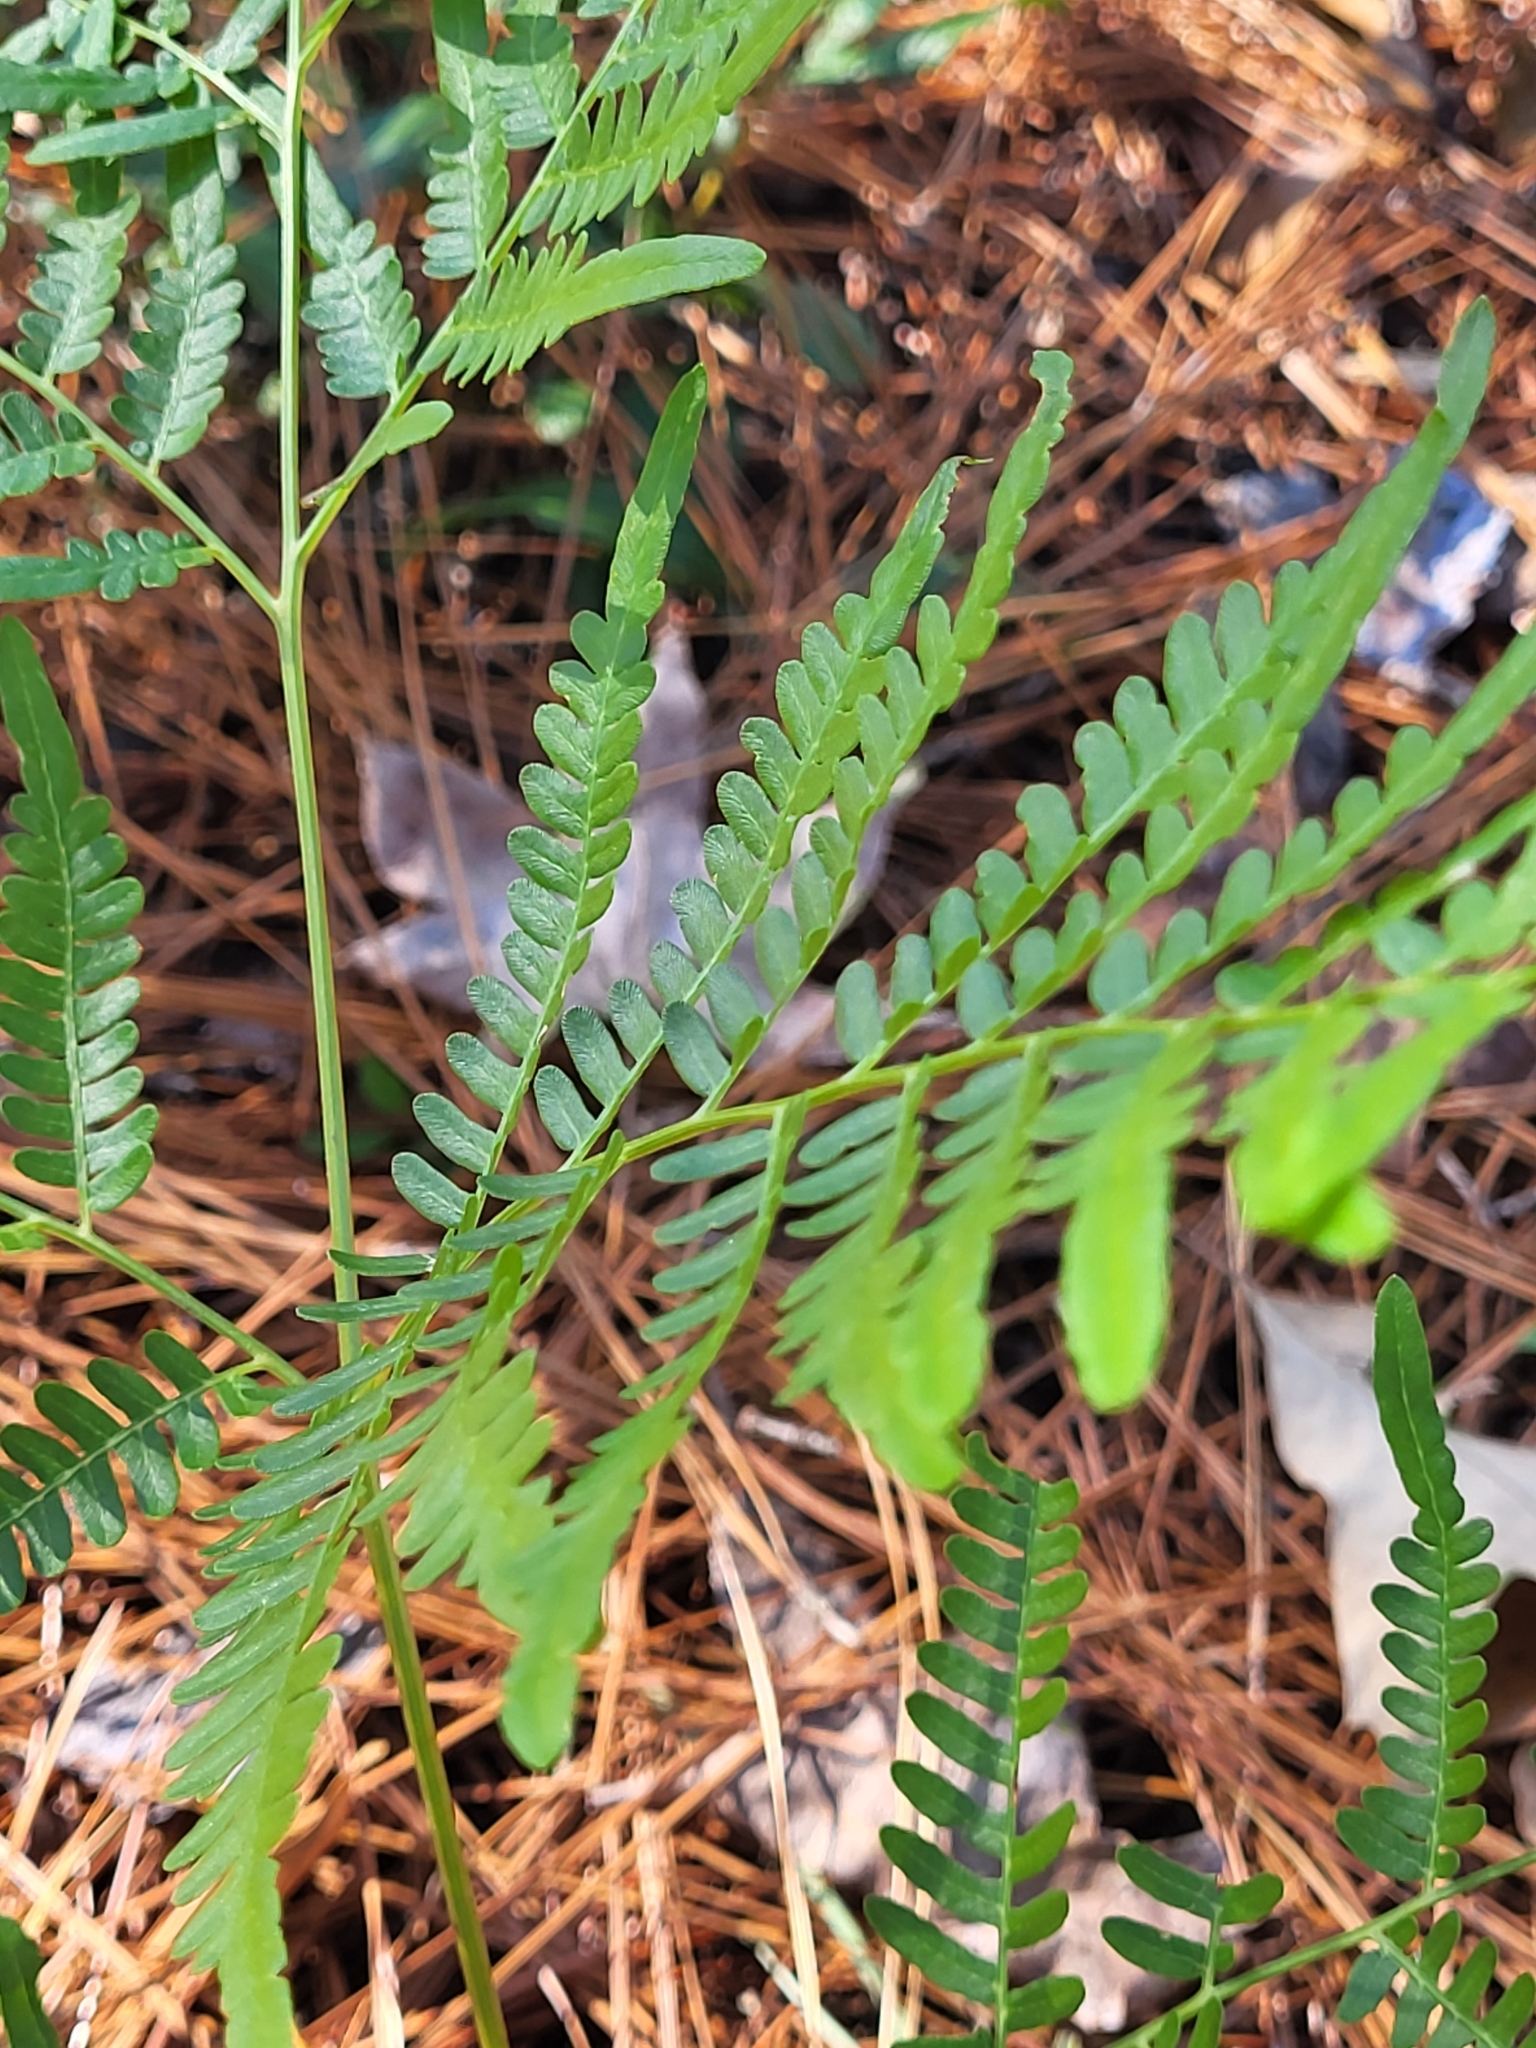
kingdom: Plantae
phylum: Tracheophyta
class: Polypodiopsida
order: Polypodiales
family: Dennstaedtiaceae
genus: Pteridium
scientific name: Pteridium
